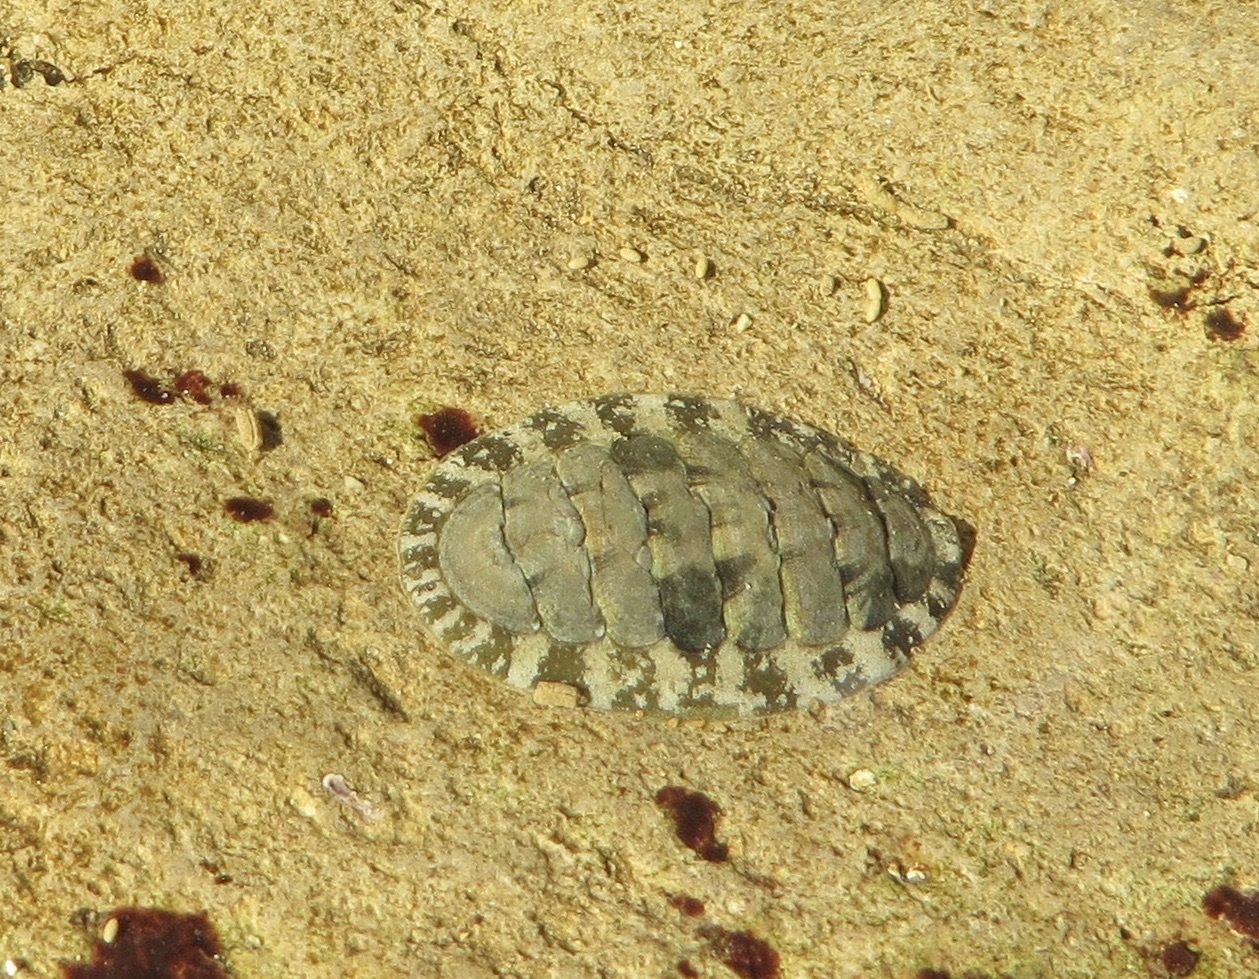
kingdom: Animalia
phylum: Mollusca
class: Polyplacophora
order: Chitonida
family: Tonicellidae
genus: Cyanoplax
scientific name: Cyanoplax hartwegii
